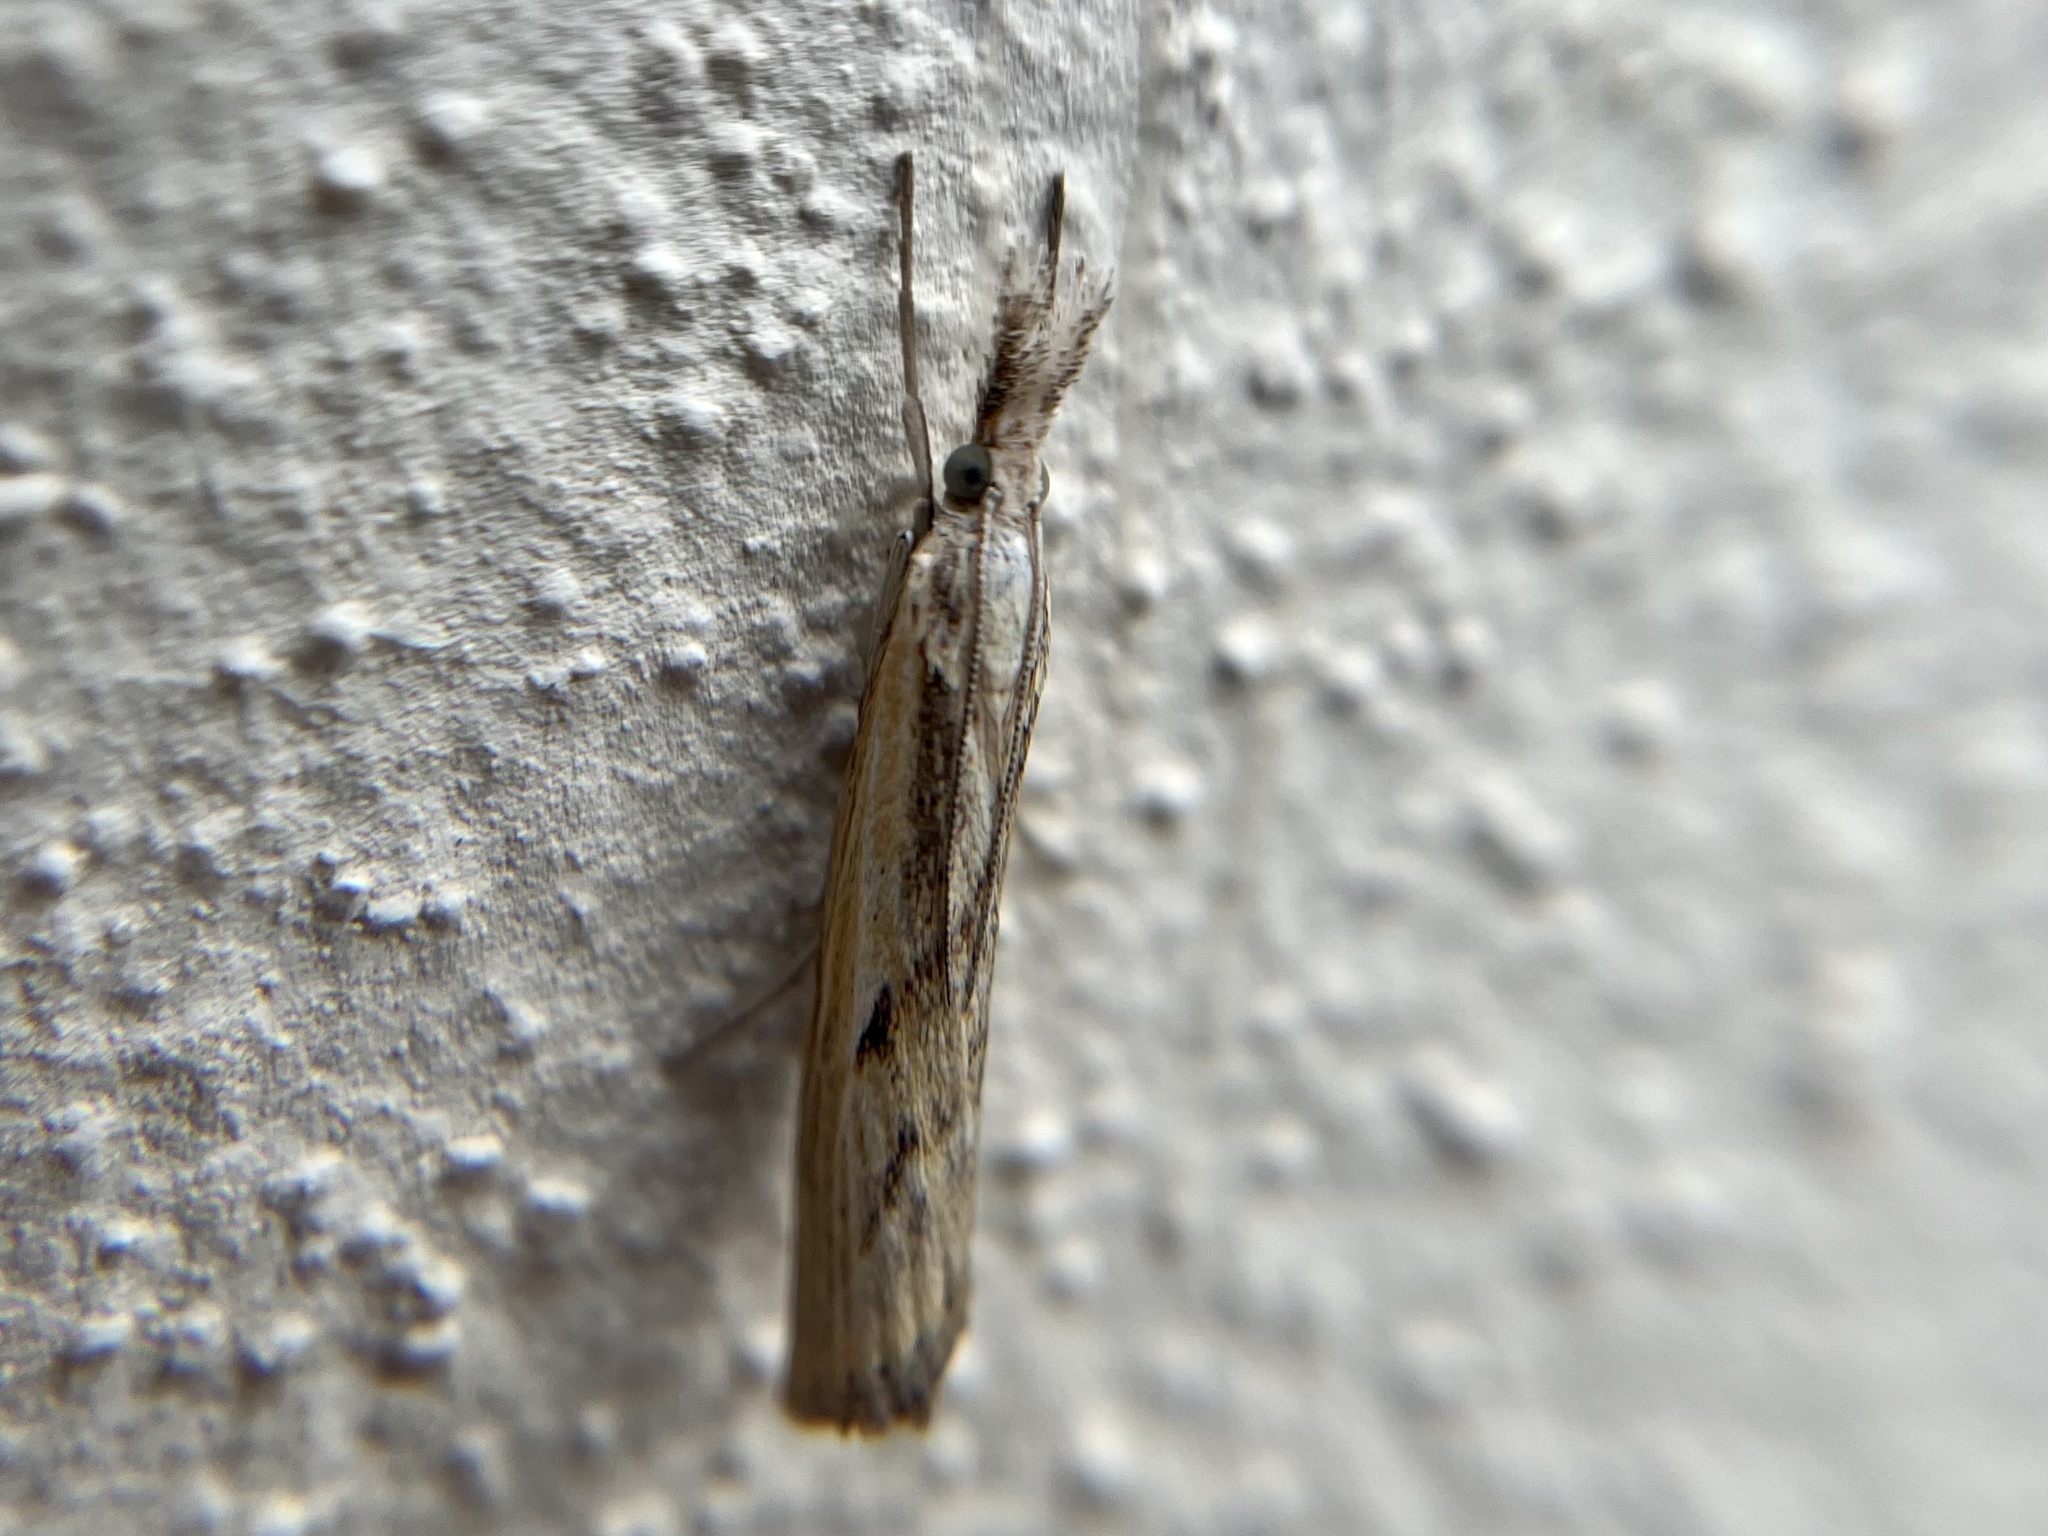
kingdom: Animalia
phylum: Arthropoda
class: Insecta
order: Lepidoptera
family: Crambidae
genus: Agriphila
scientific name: Agriphila inquinatella
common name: Barred grass-veneer
